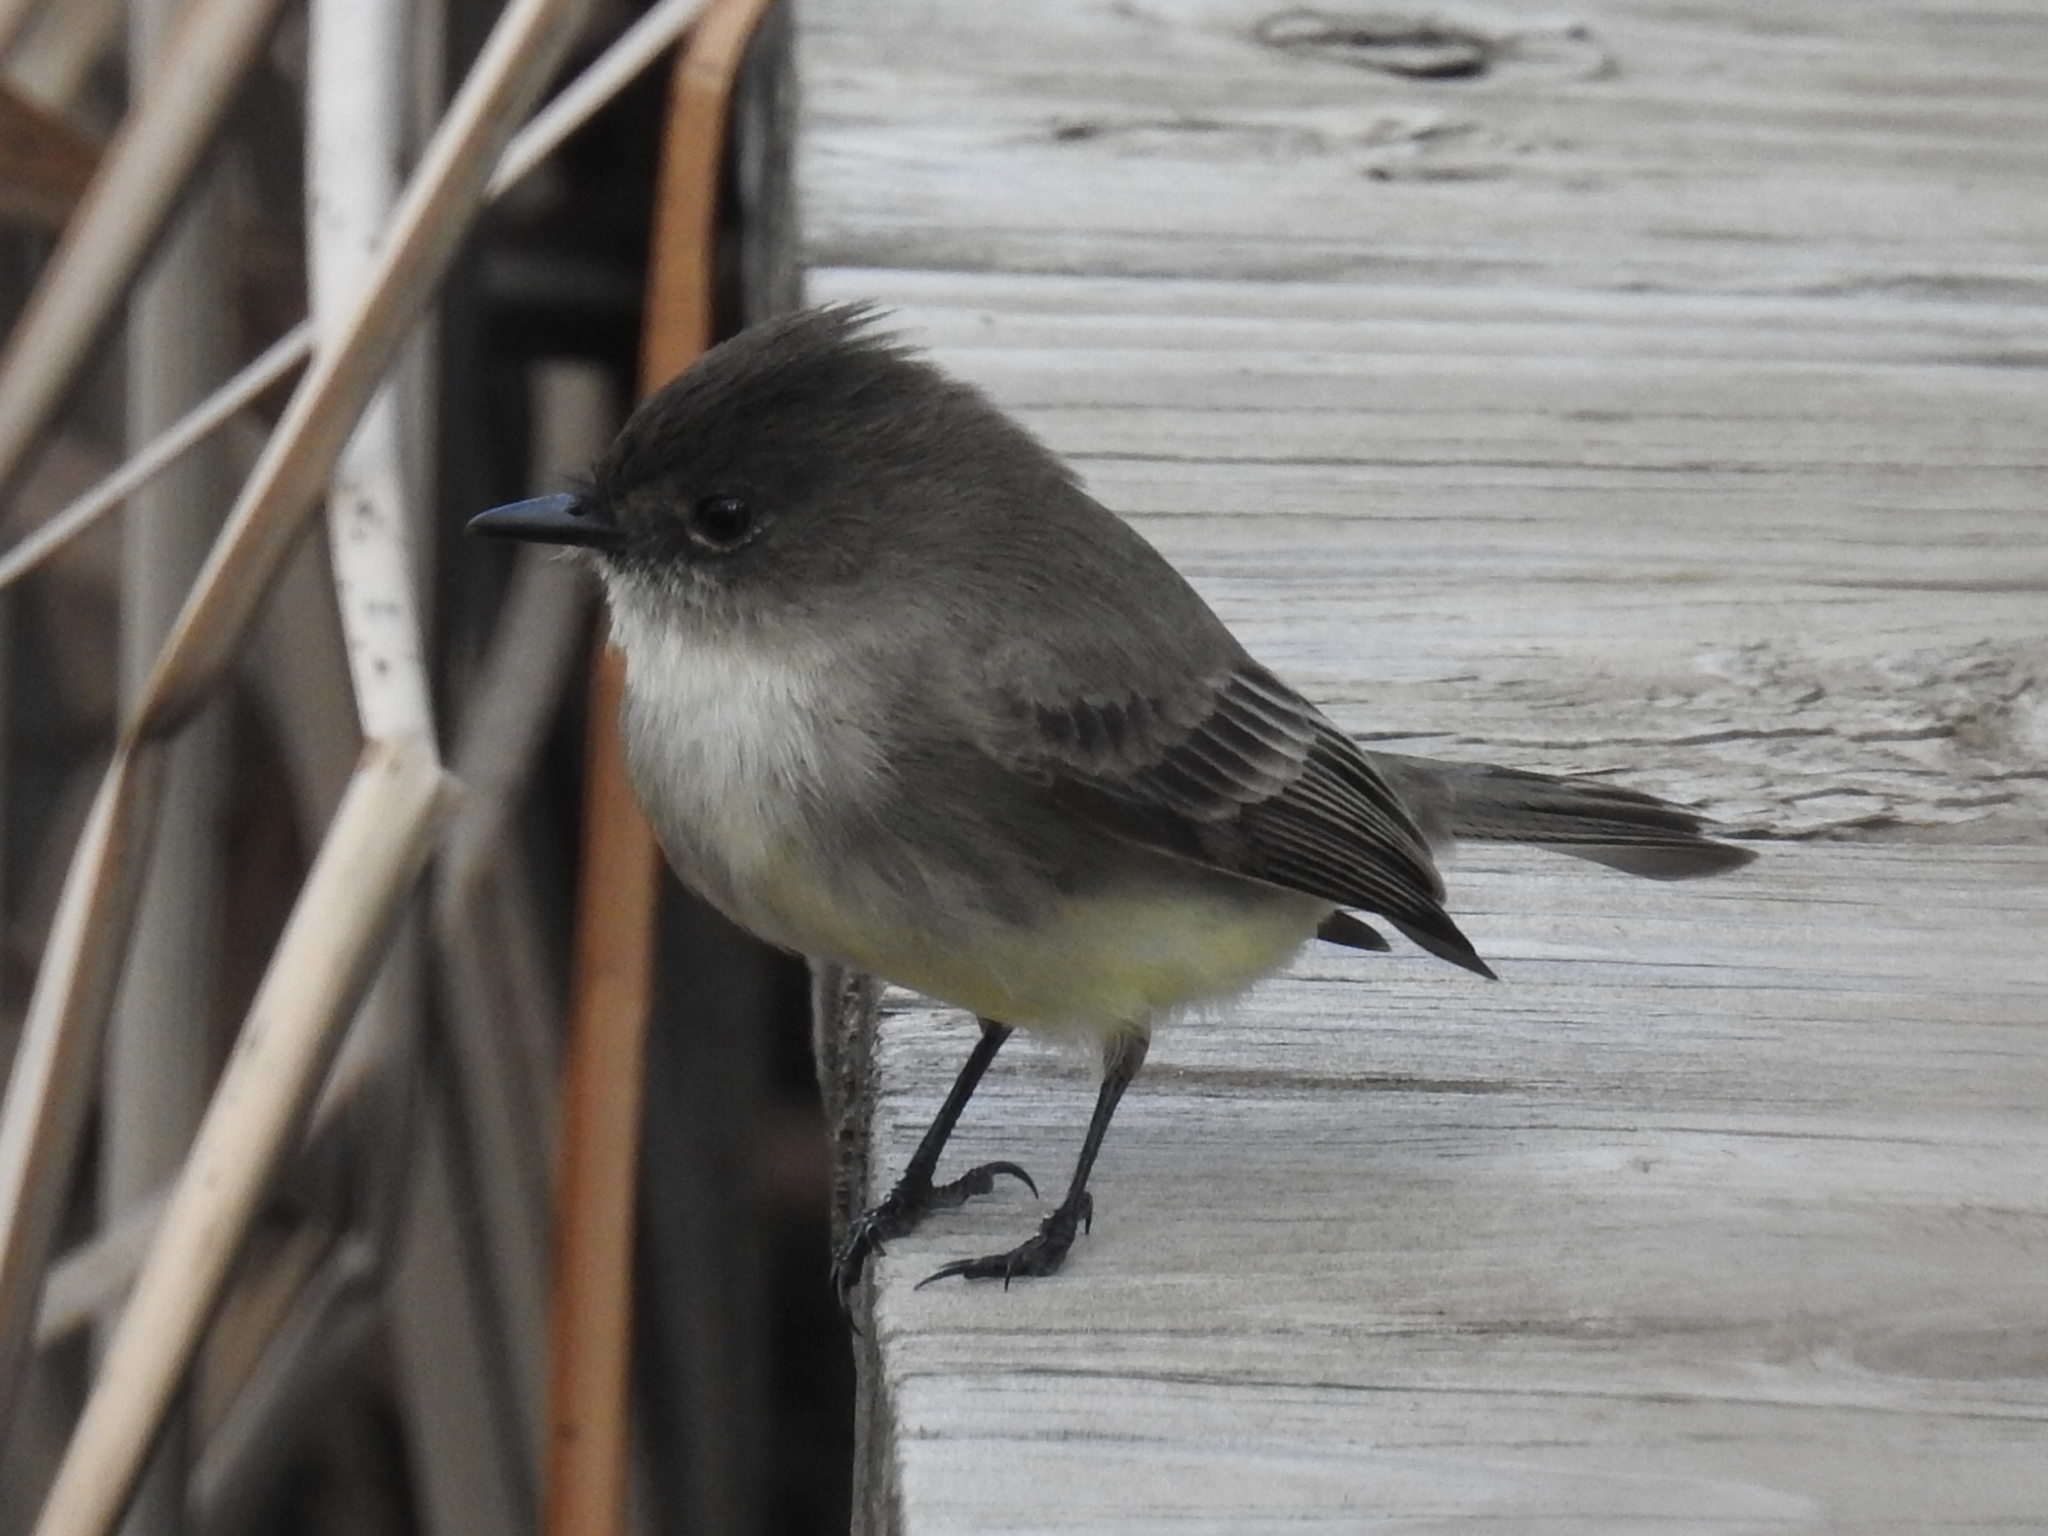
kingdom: Animalia
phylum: Chordata
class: Aves
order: Passeriformes
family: Tyrannidae
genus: Sayornis
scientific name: Sayornis phoebe
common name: Eastern phoebe
